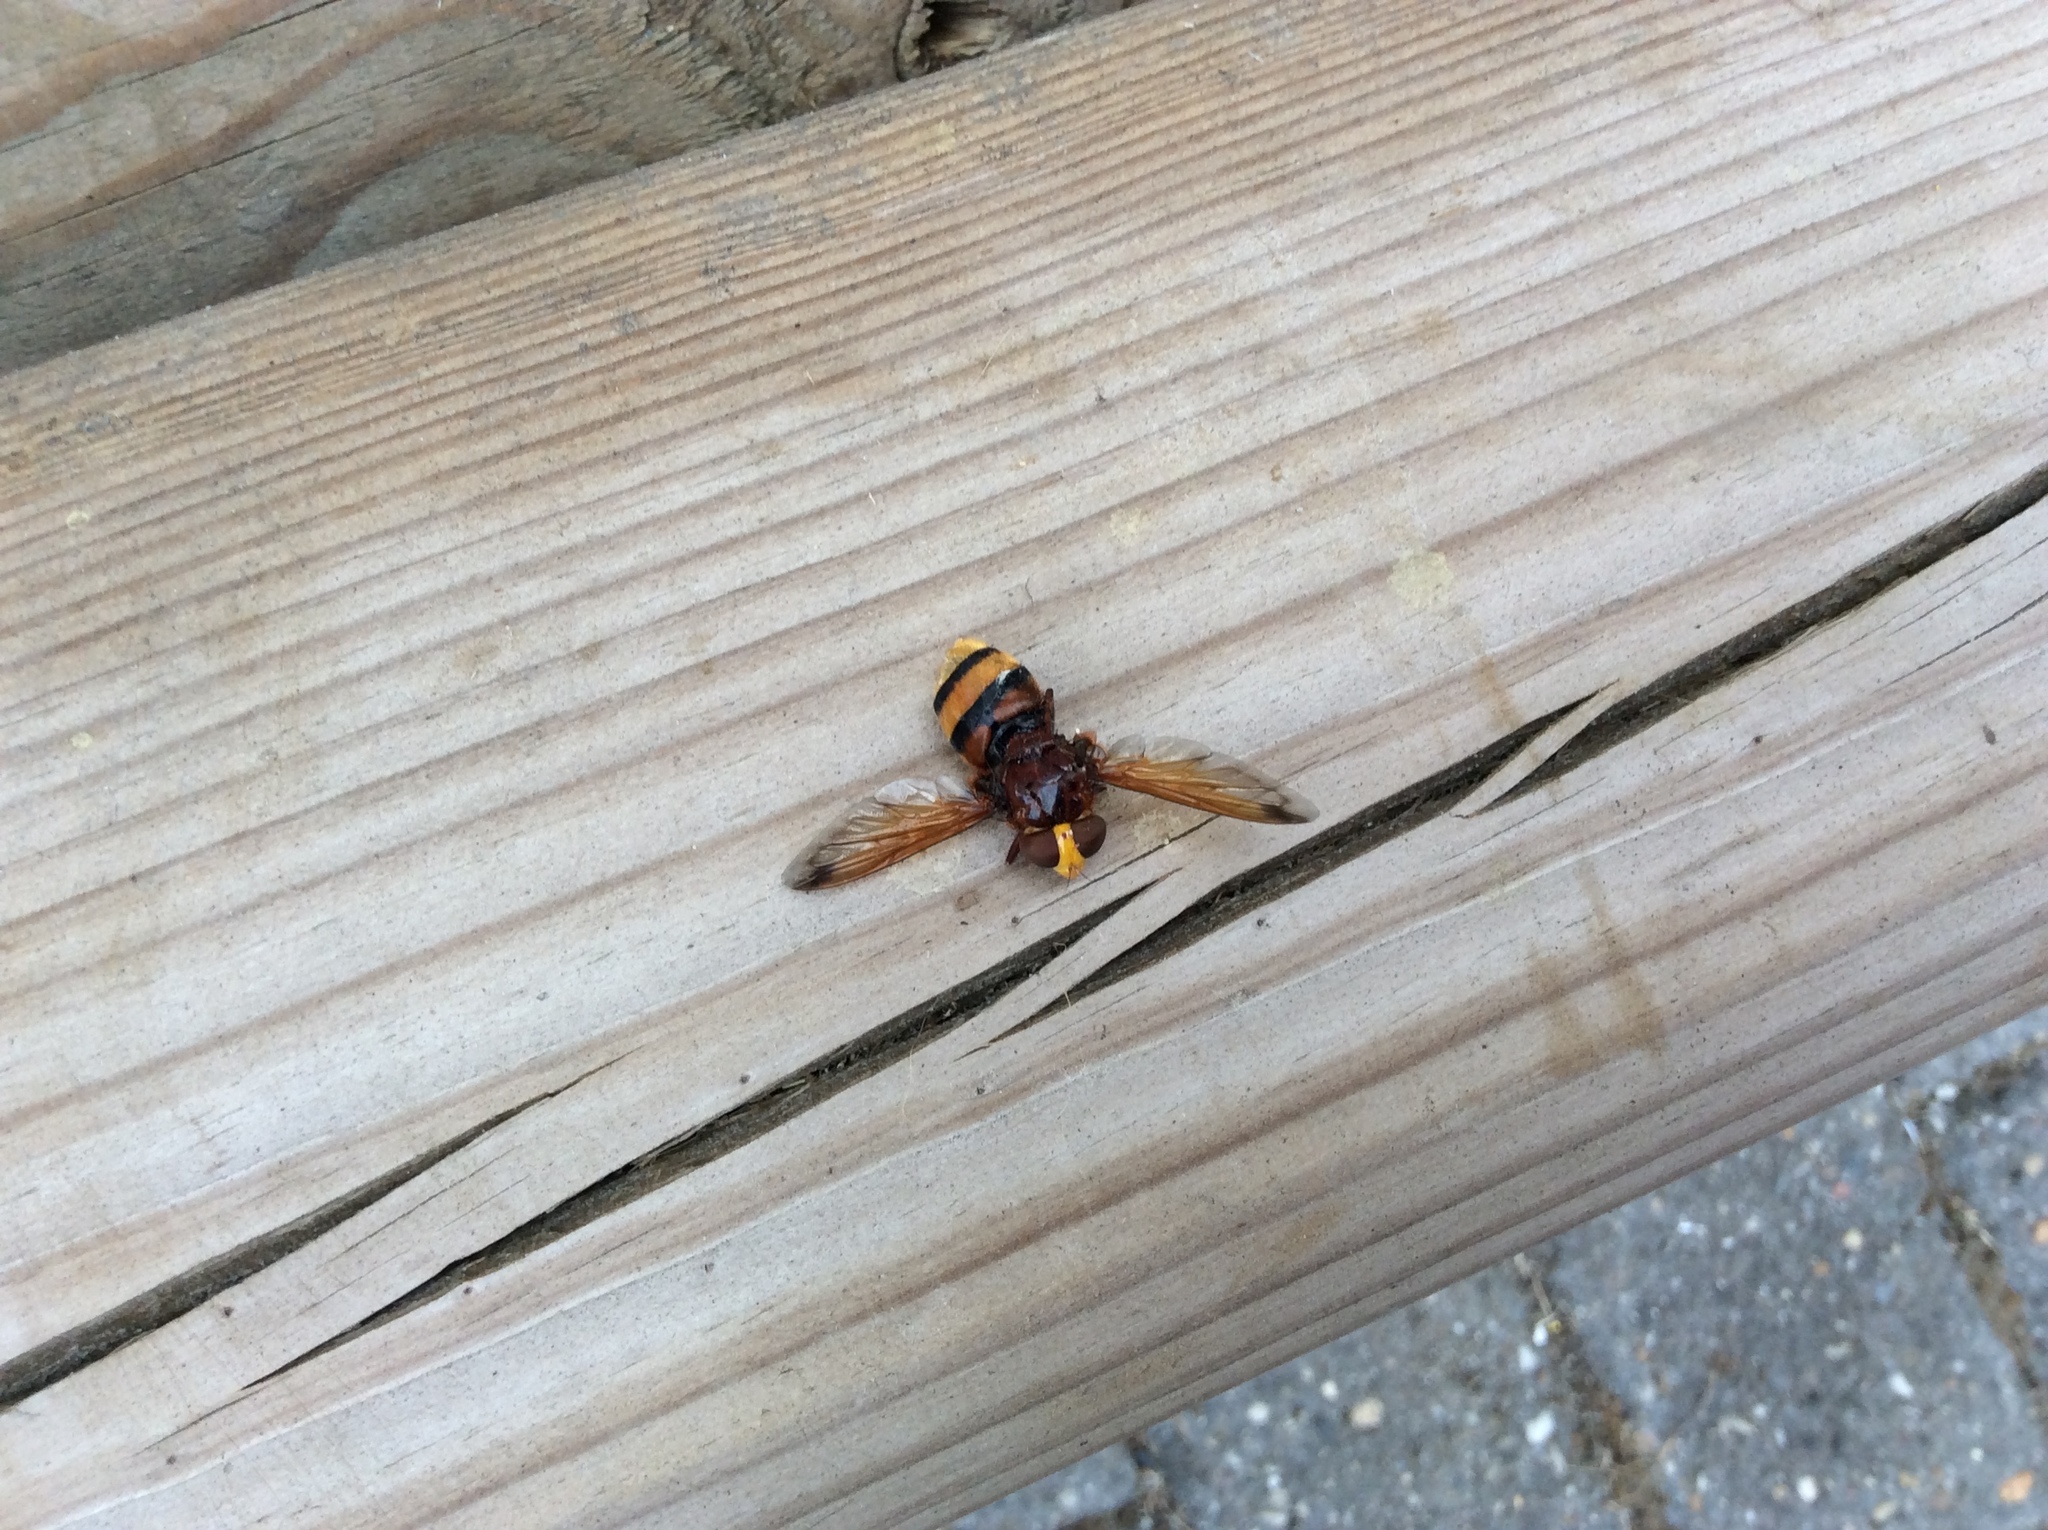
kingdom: Animalia
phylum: Arthropoda
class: Insecta
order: Diptera
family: Syrphidae
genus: Volucella
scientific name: Volucella zonaria
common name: Hornet hoverfly
